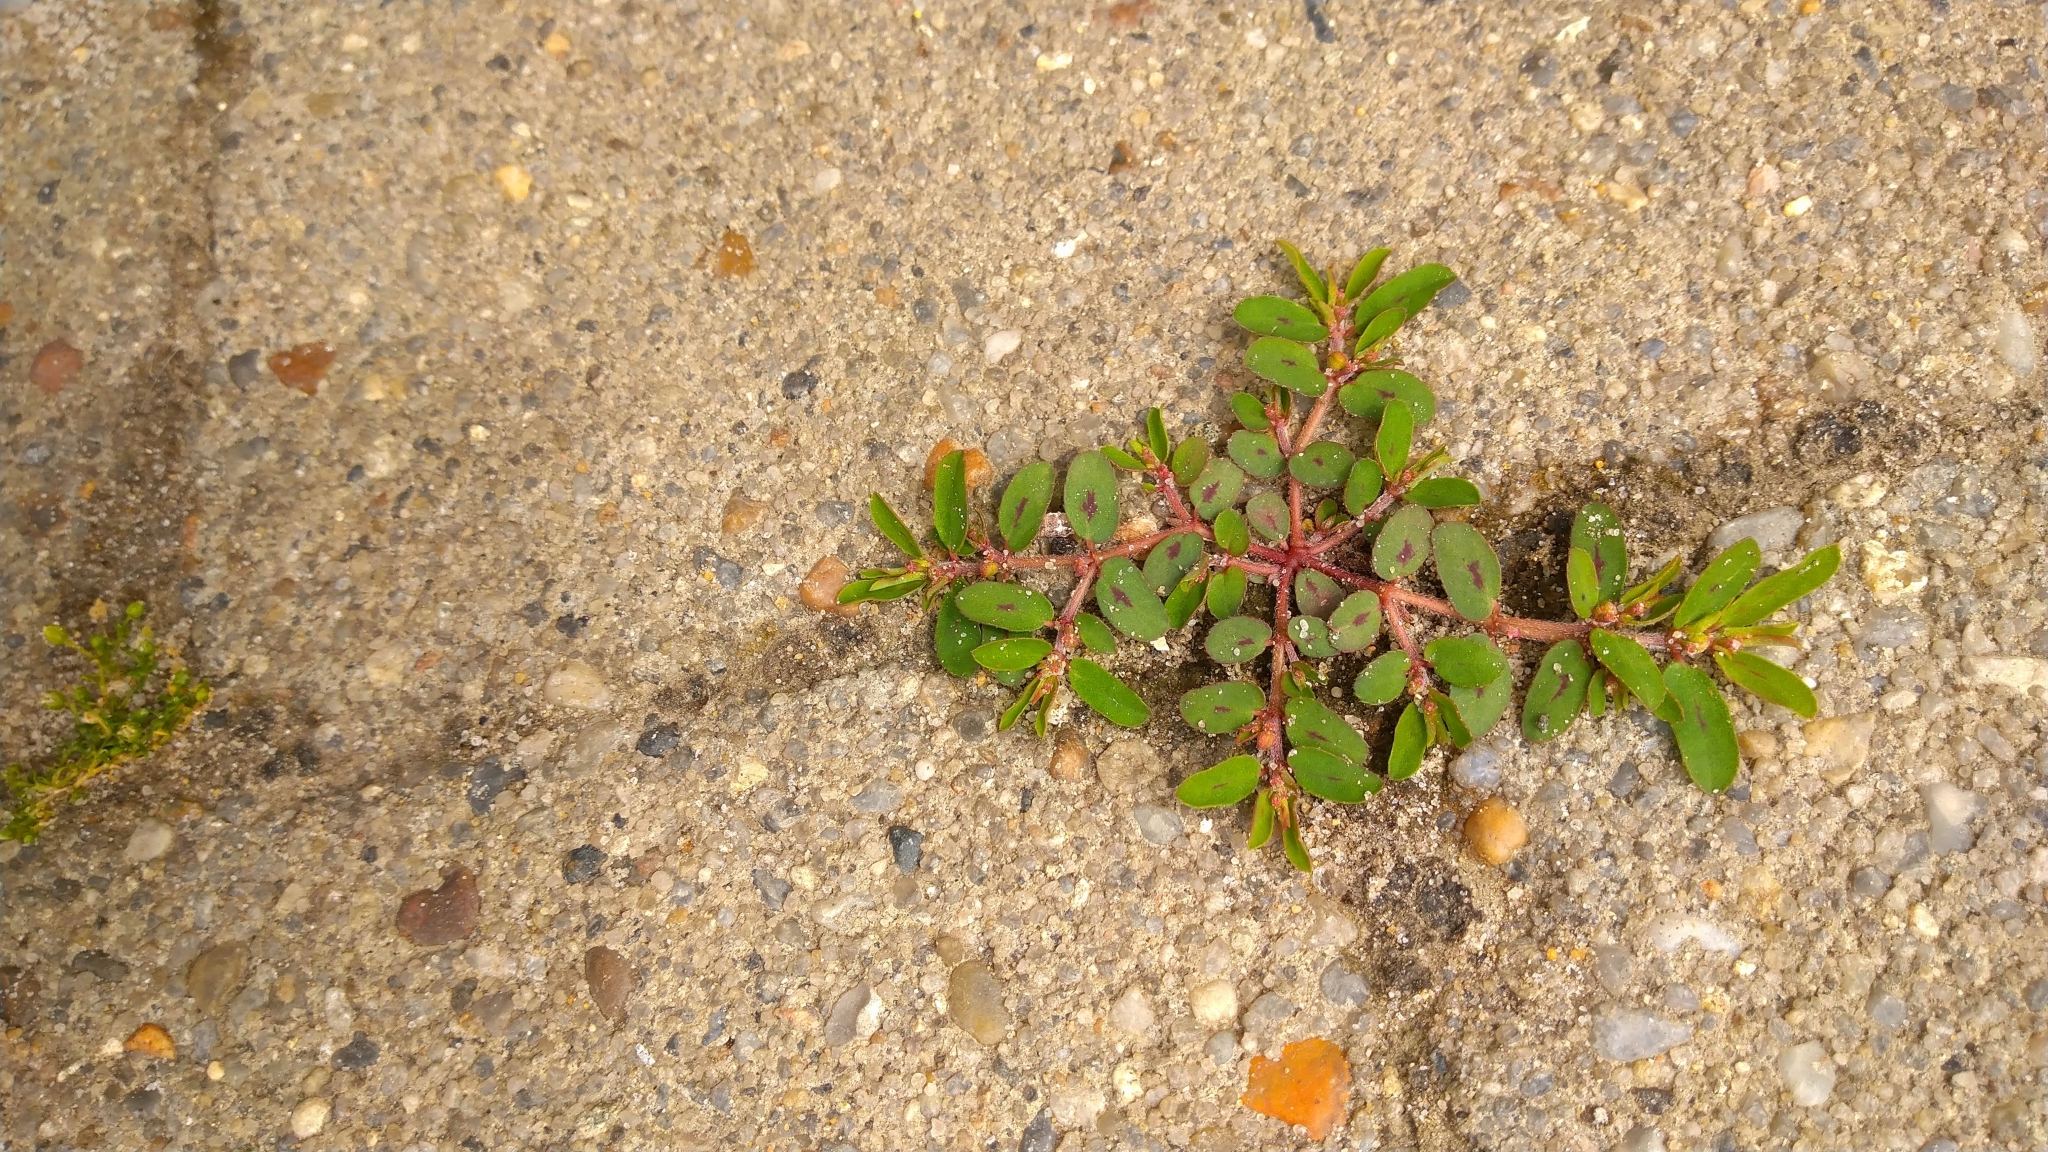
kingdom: Plantae
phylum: Tracheophyta
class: Magnoliopsida
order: Malpighiales
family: Euphorbiaceae
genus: Euphorbia
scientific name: Euphorbia maculata
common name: Spotted spurge
